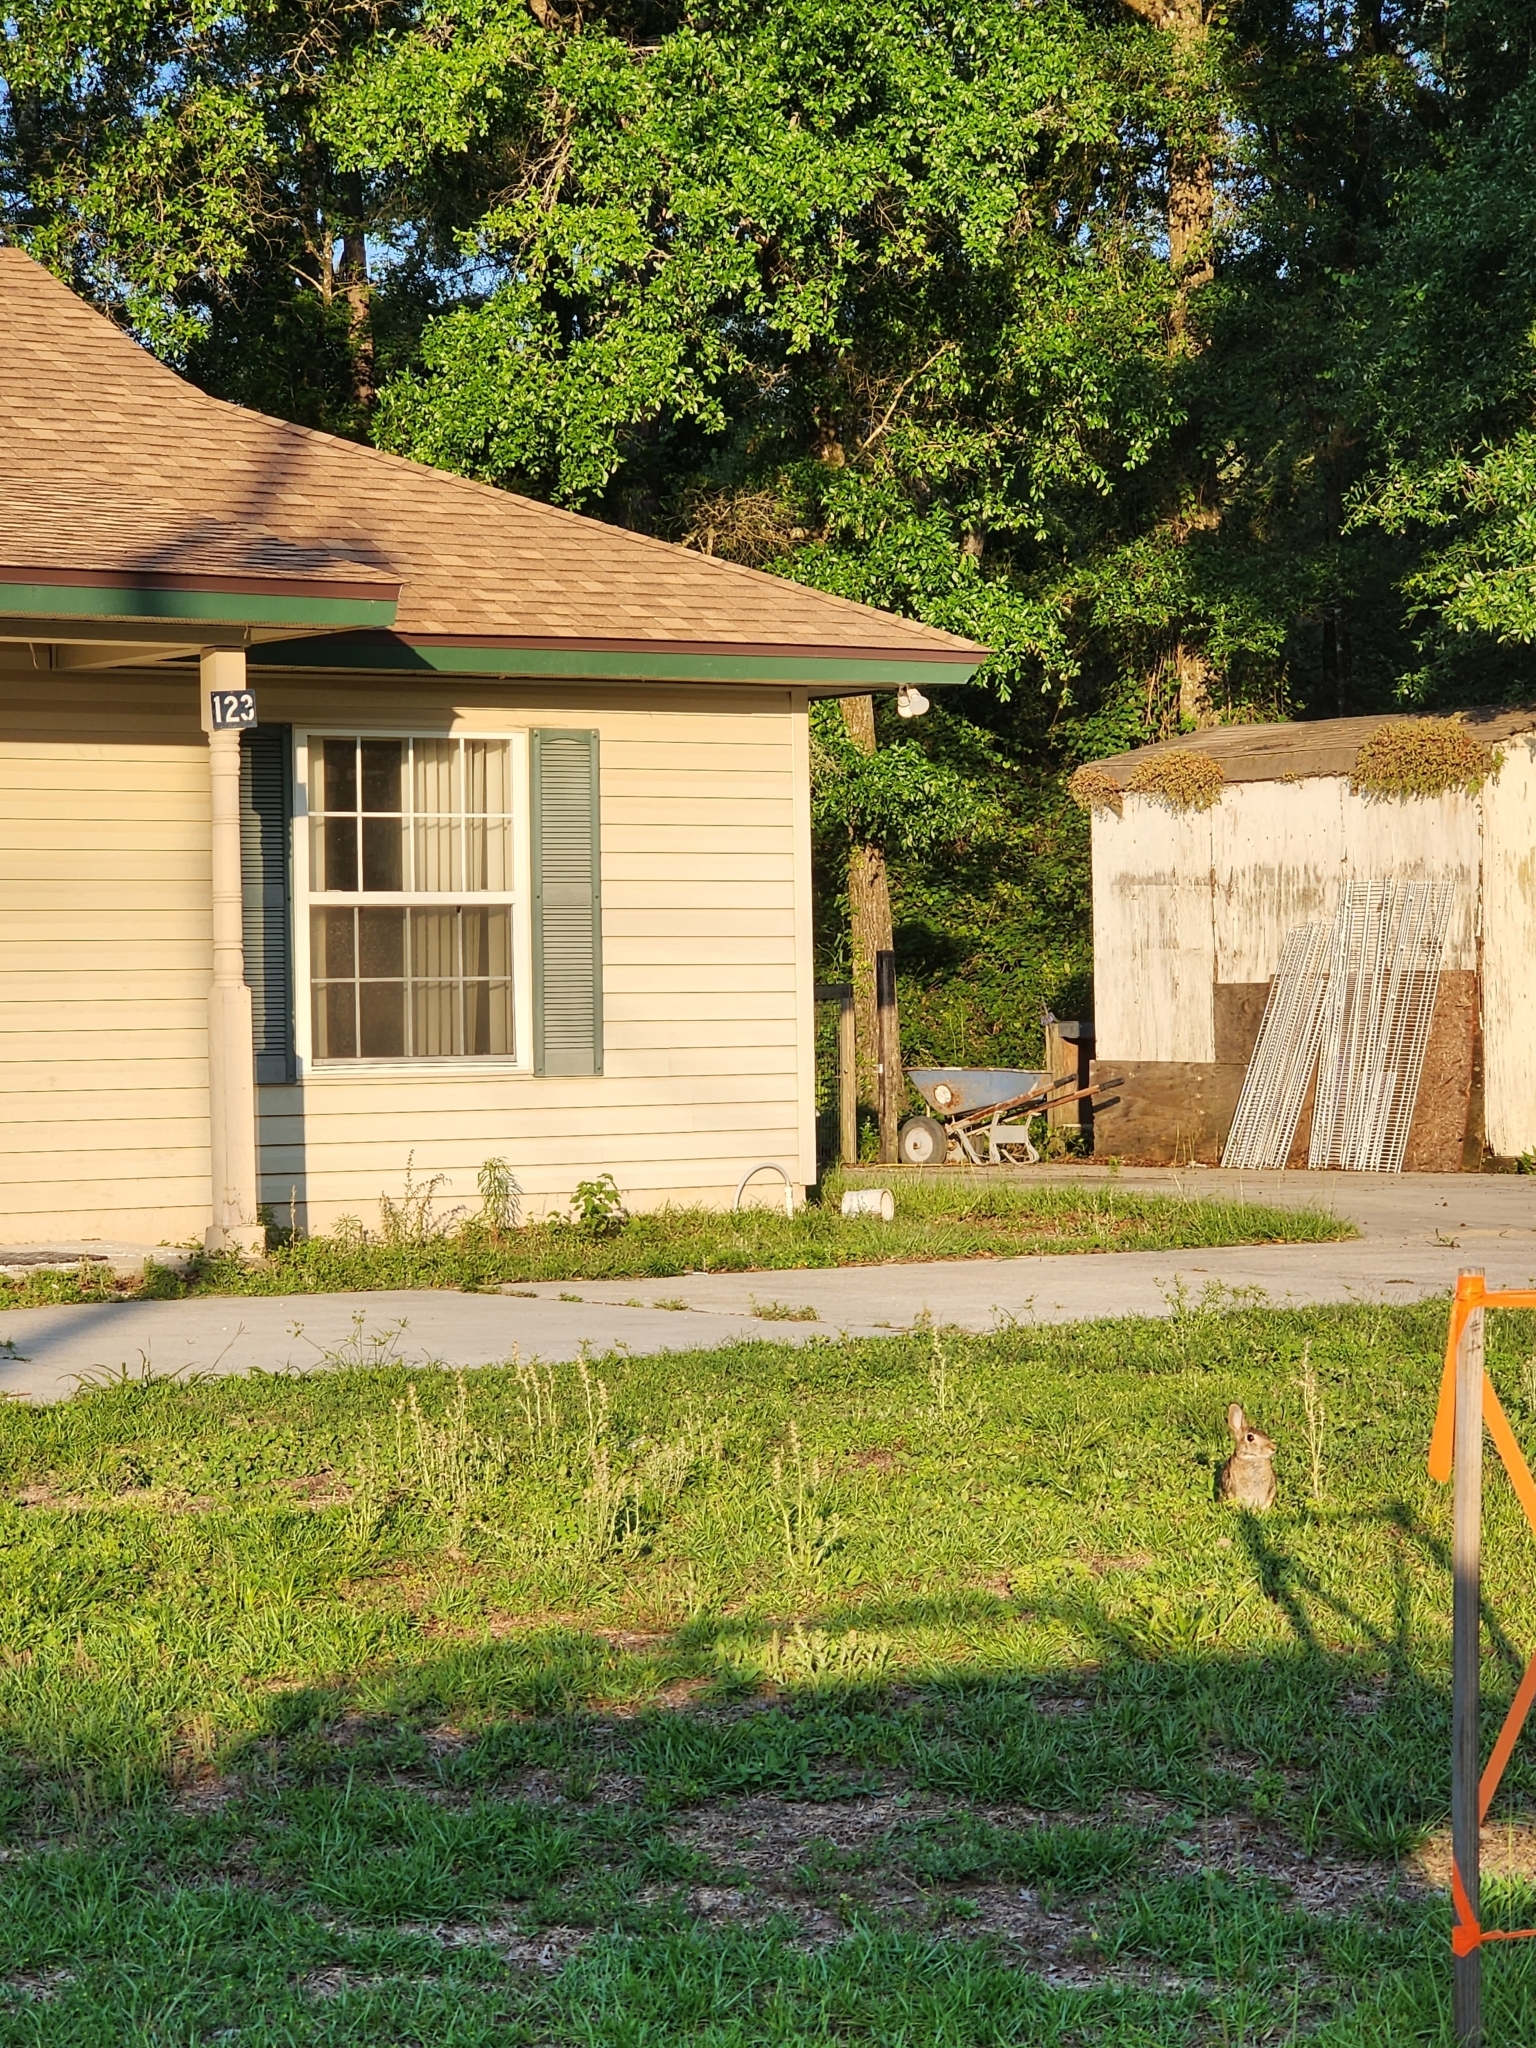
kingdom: Animalia
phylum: Chordata
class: Mammalia
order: Lagomorpha
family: Leporidae
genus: Sylvilagus
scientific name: Sylvilagus floridanus
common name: Eastern cottontail
